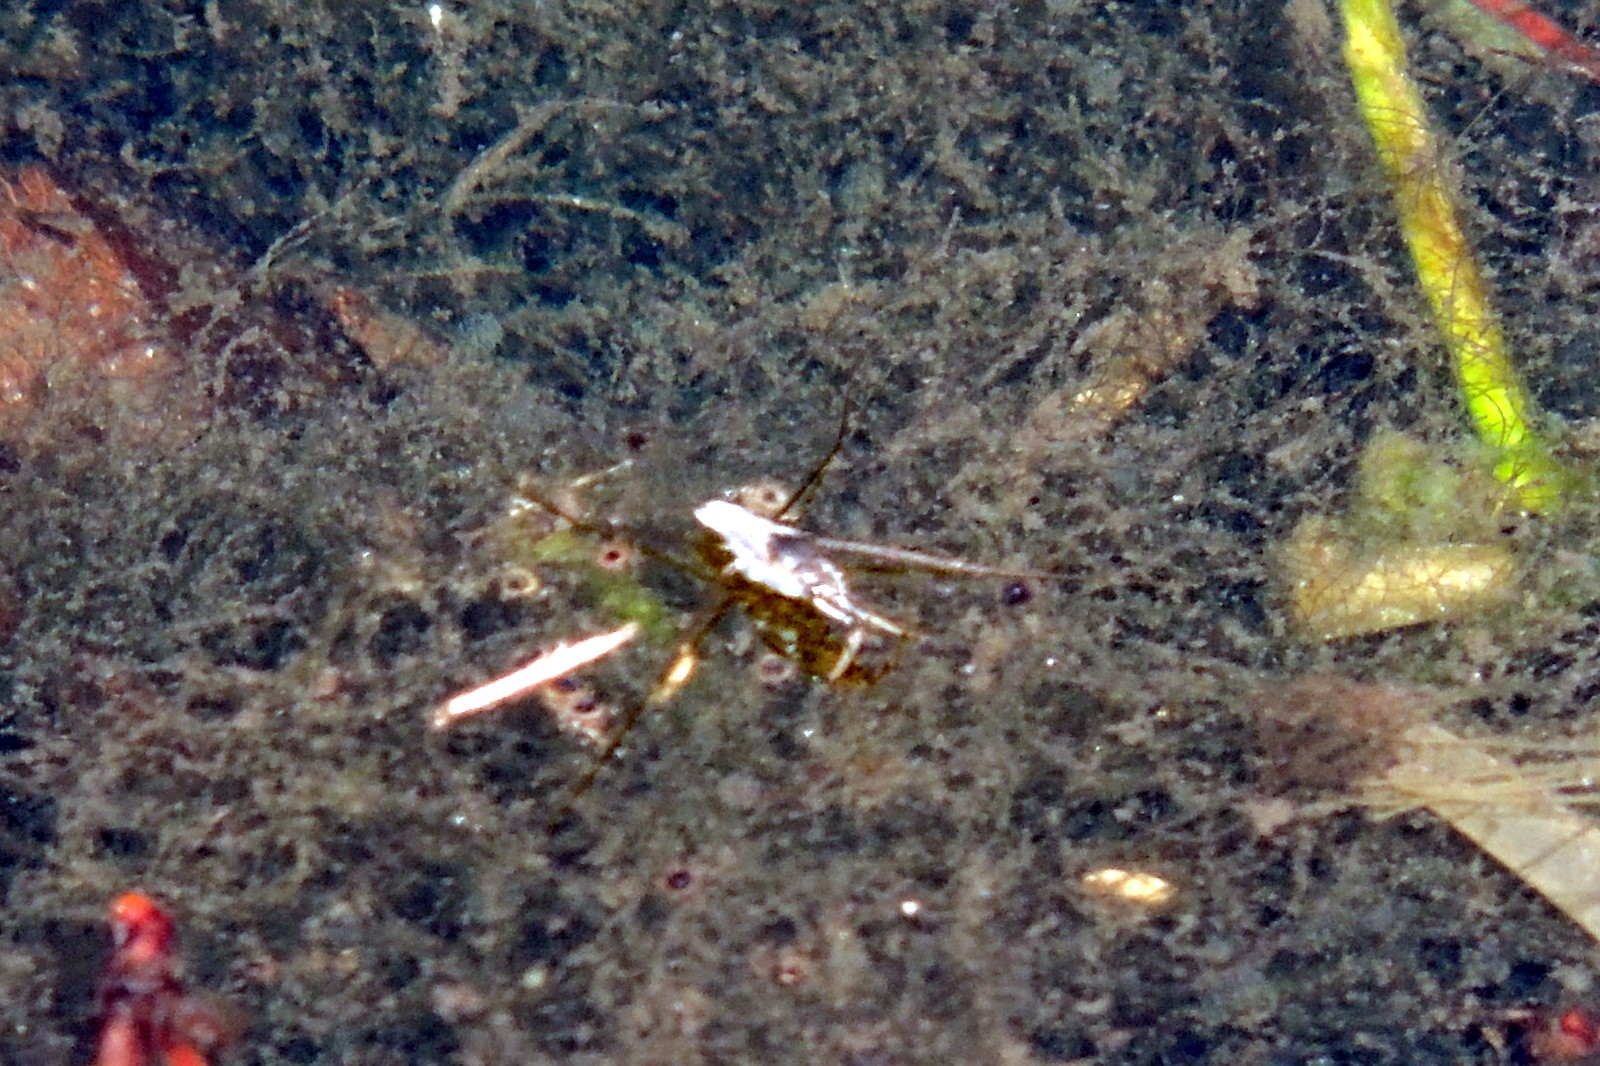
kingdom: Animalia
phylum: Arthropoda
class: Insecta
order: Hemiptera
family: Gerridae
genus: Neogerris
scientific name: Neogerris hesione
